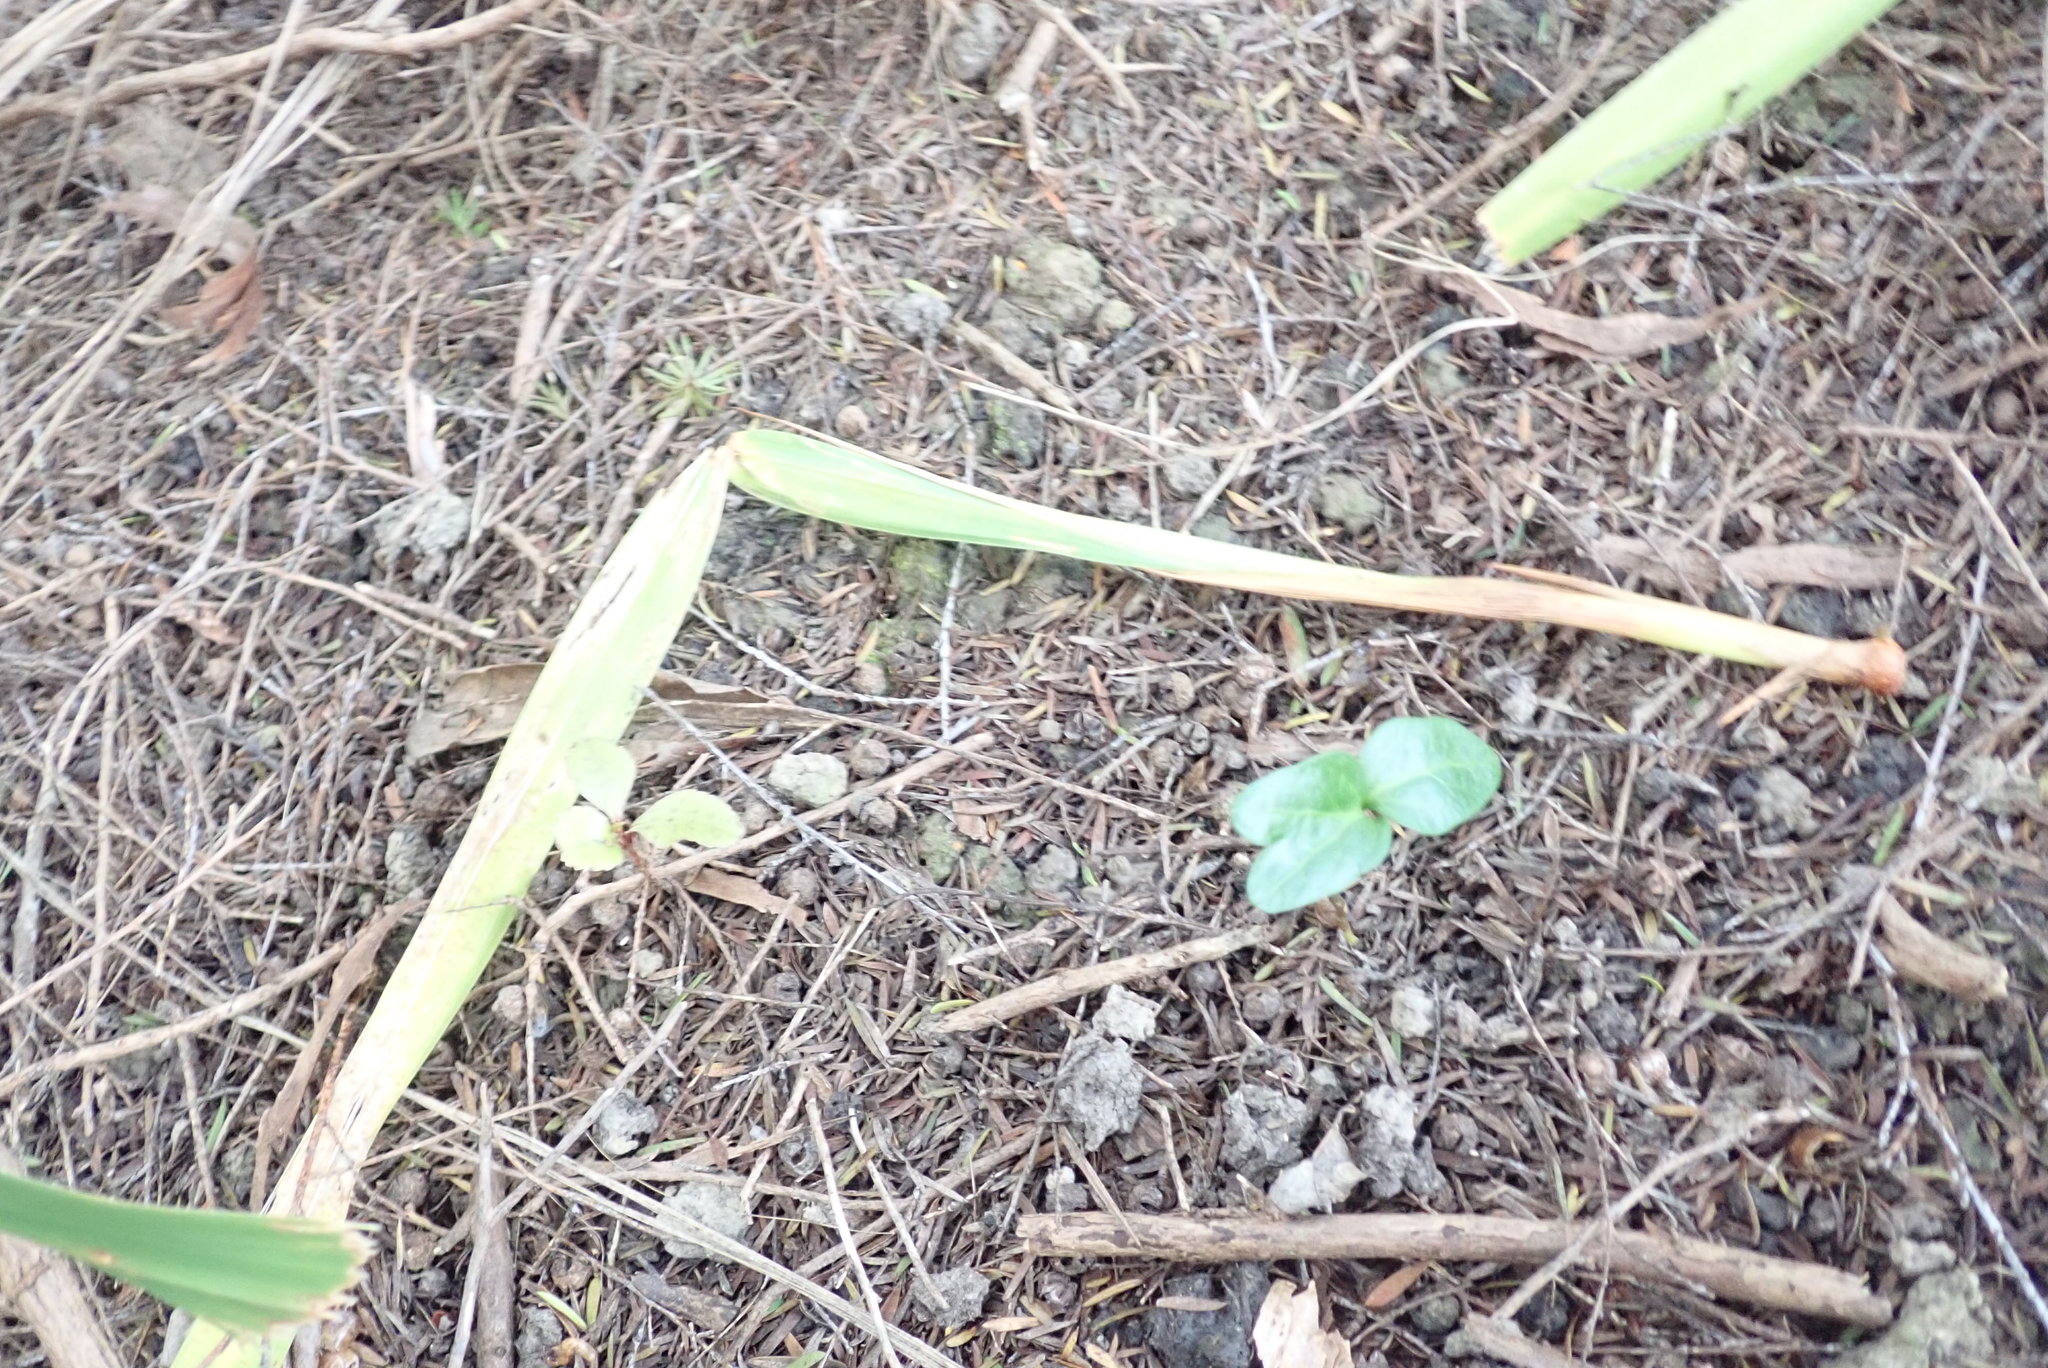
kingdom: Plantae
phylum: Tracheophyta
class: Magnoliopsida
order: Ericales
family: Primulaceae
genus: Myrsine
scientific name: Myrsine australis
